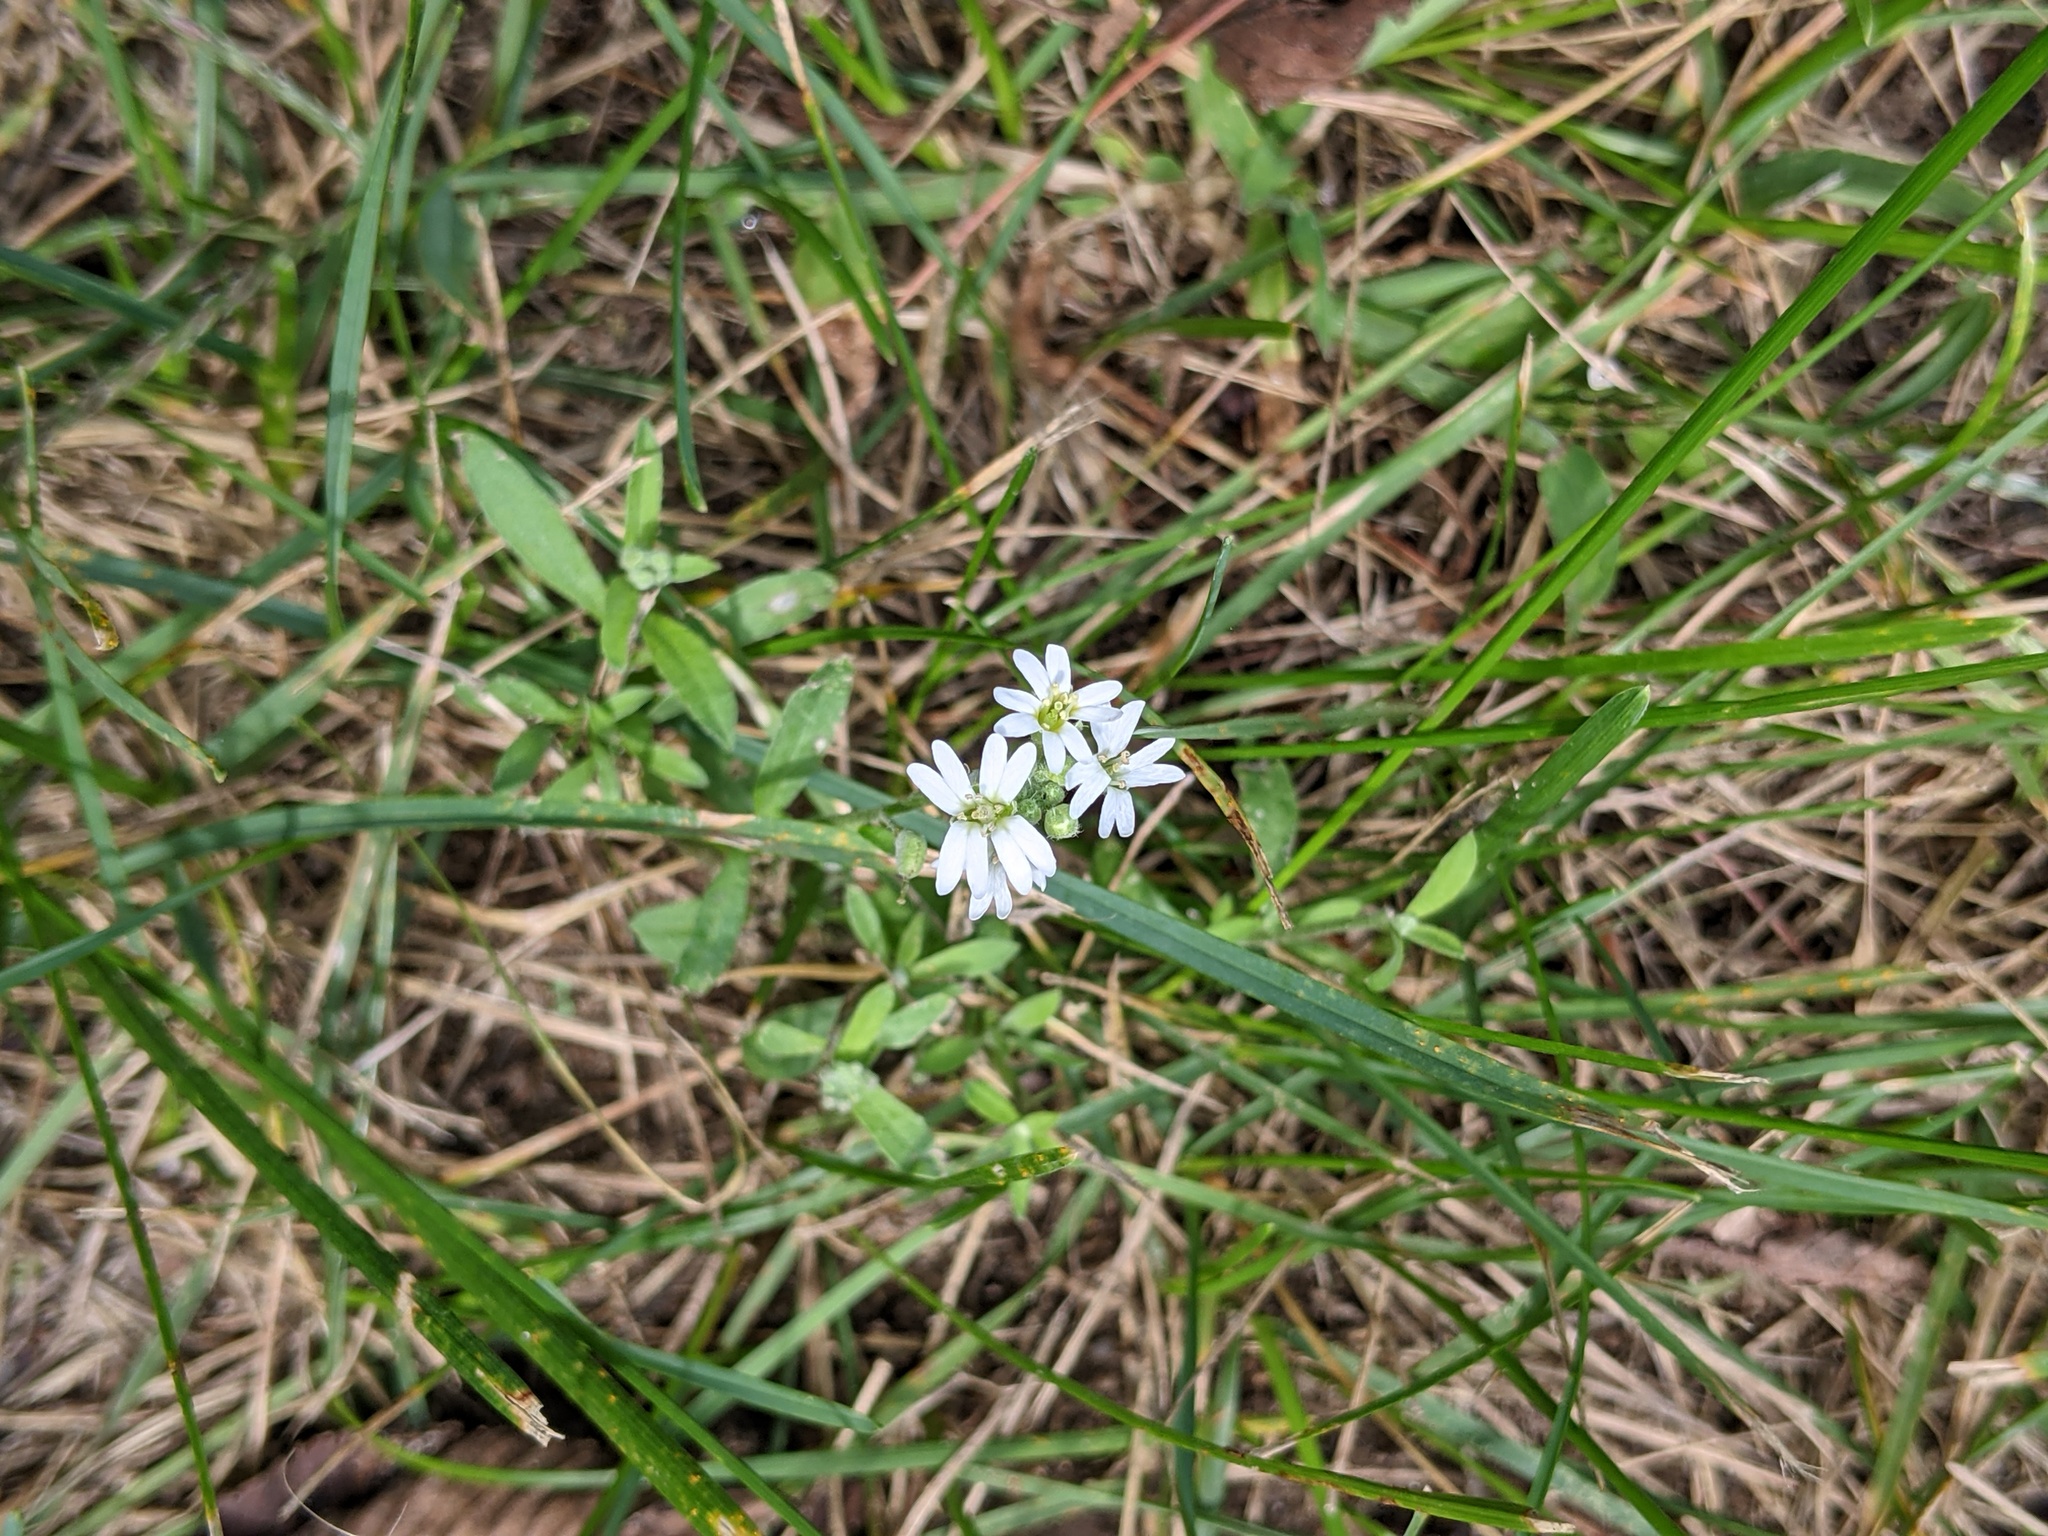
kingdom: Plantae
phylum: Tracheophyta
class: Magnoliopsida
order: Brassicales
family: Brassicaceae
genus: Berteroa
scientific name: Berteroa incana
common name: Hoary alison
